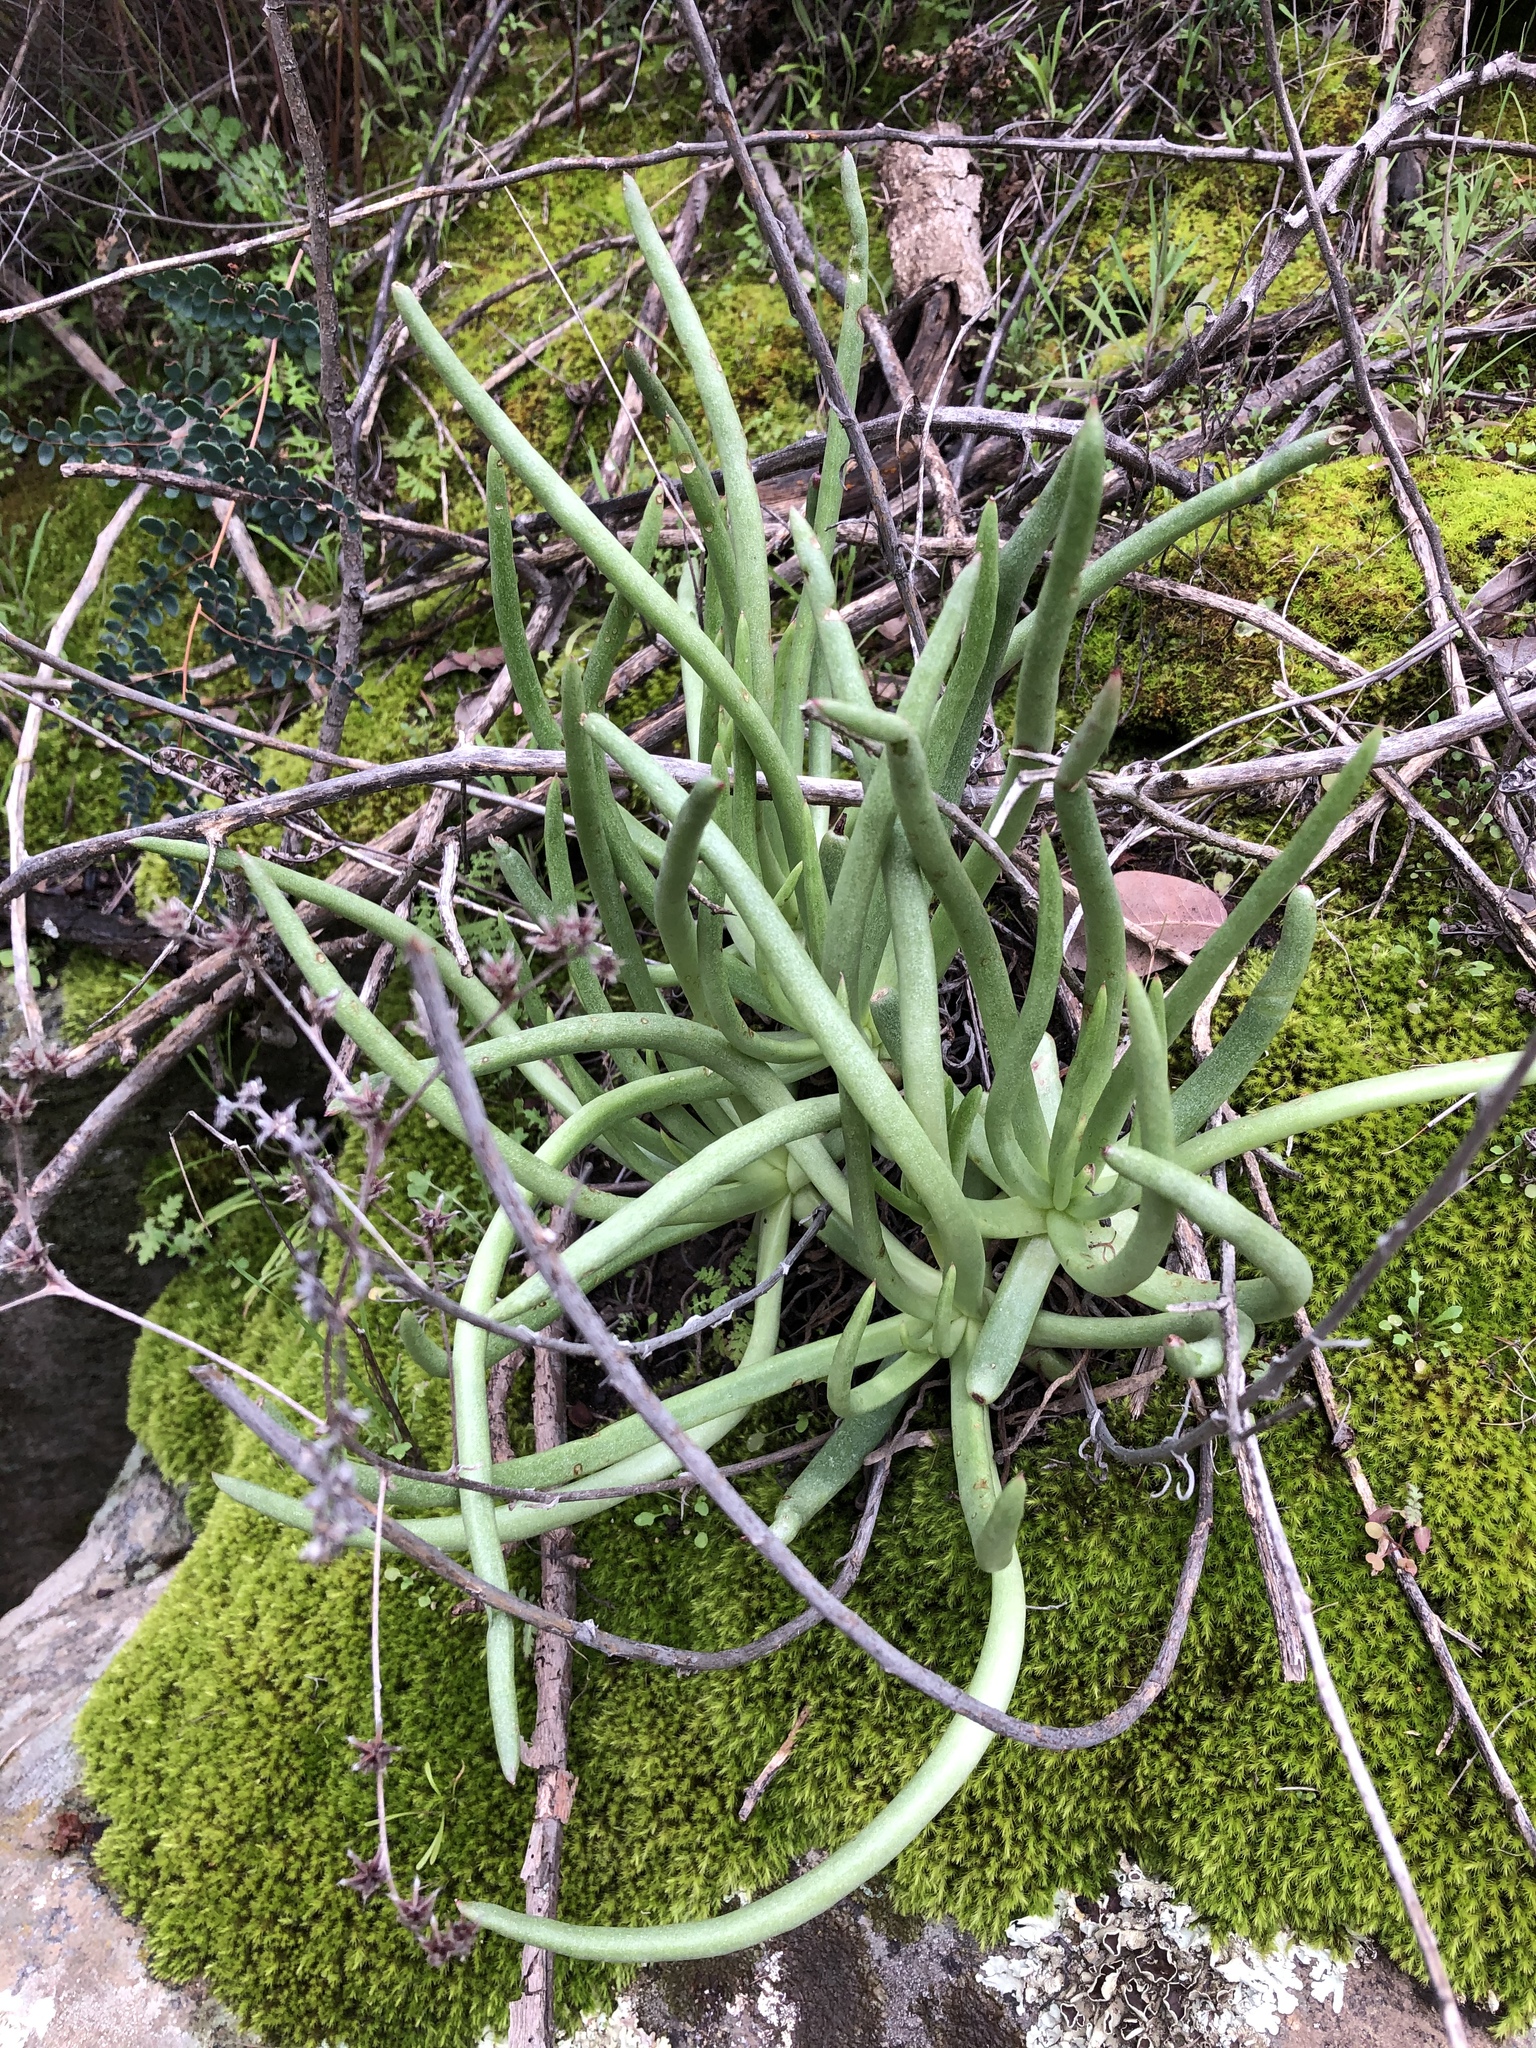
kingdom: Plantae
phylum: Tracheophyta
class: Magnoliopsida
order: Saxifragales
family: Crassulaceae
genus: Dudleya
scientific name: Dudleya edulis
